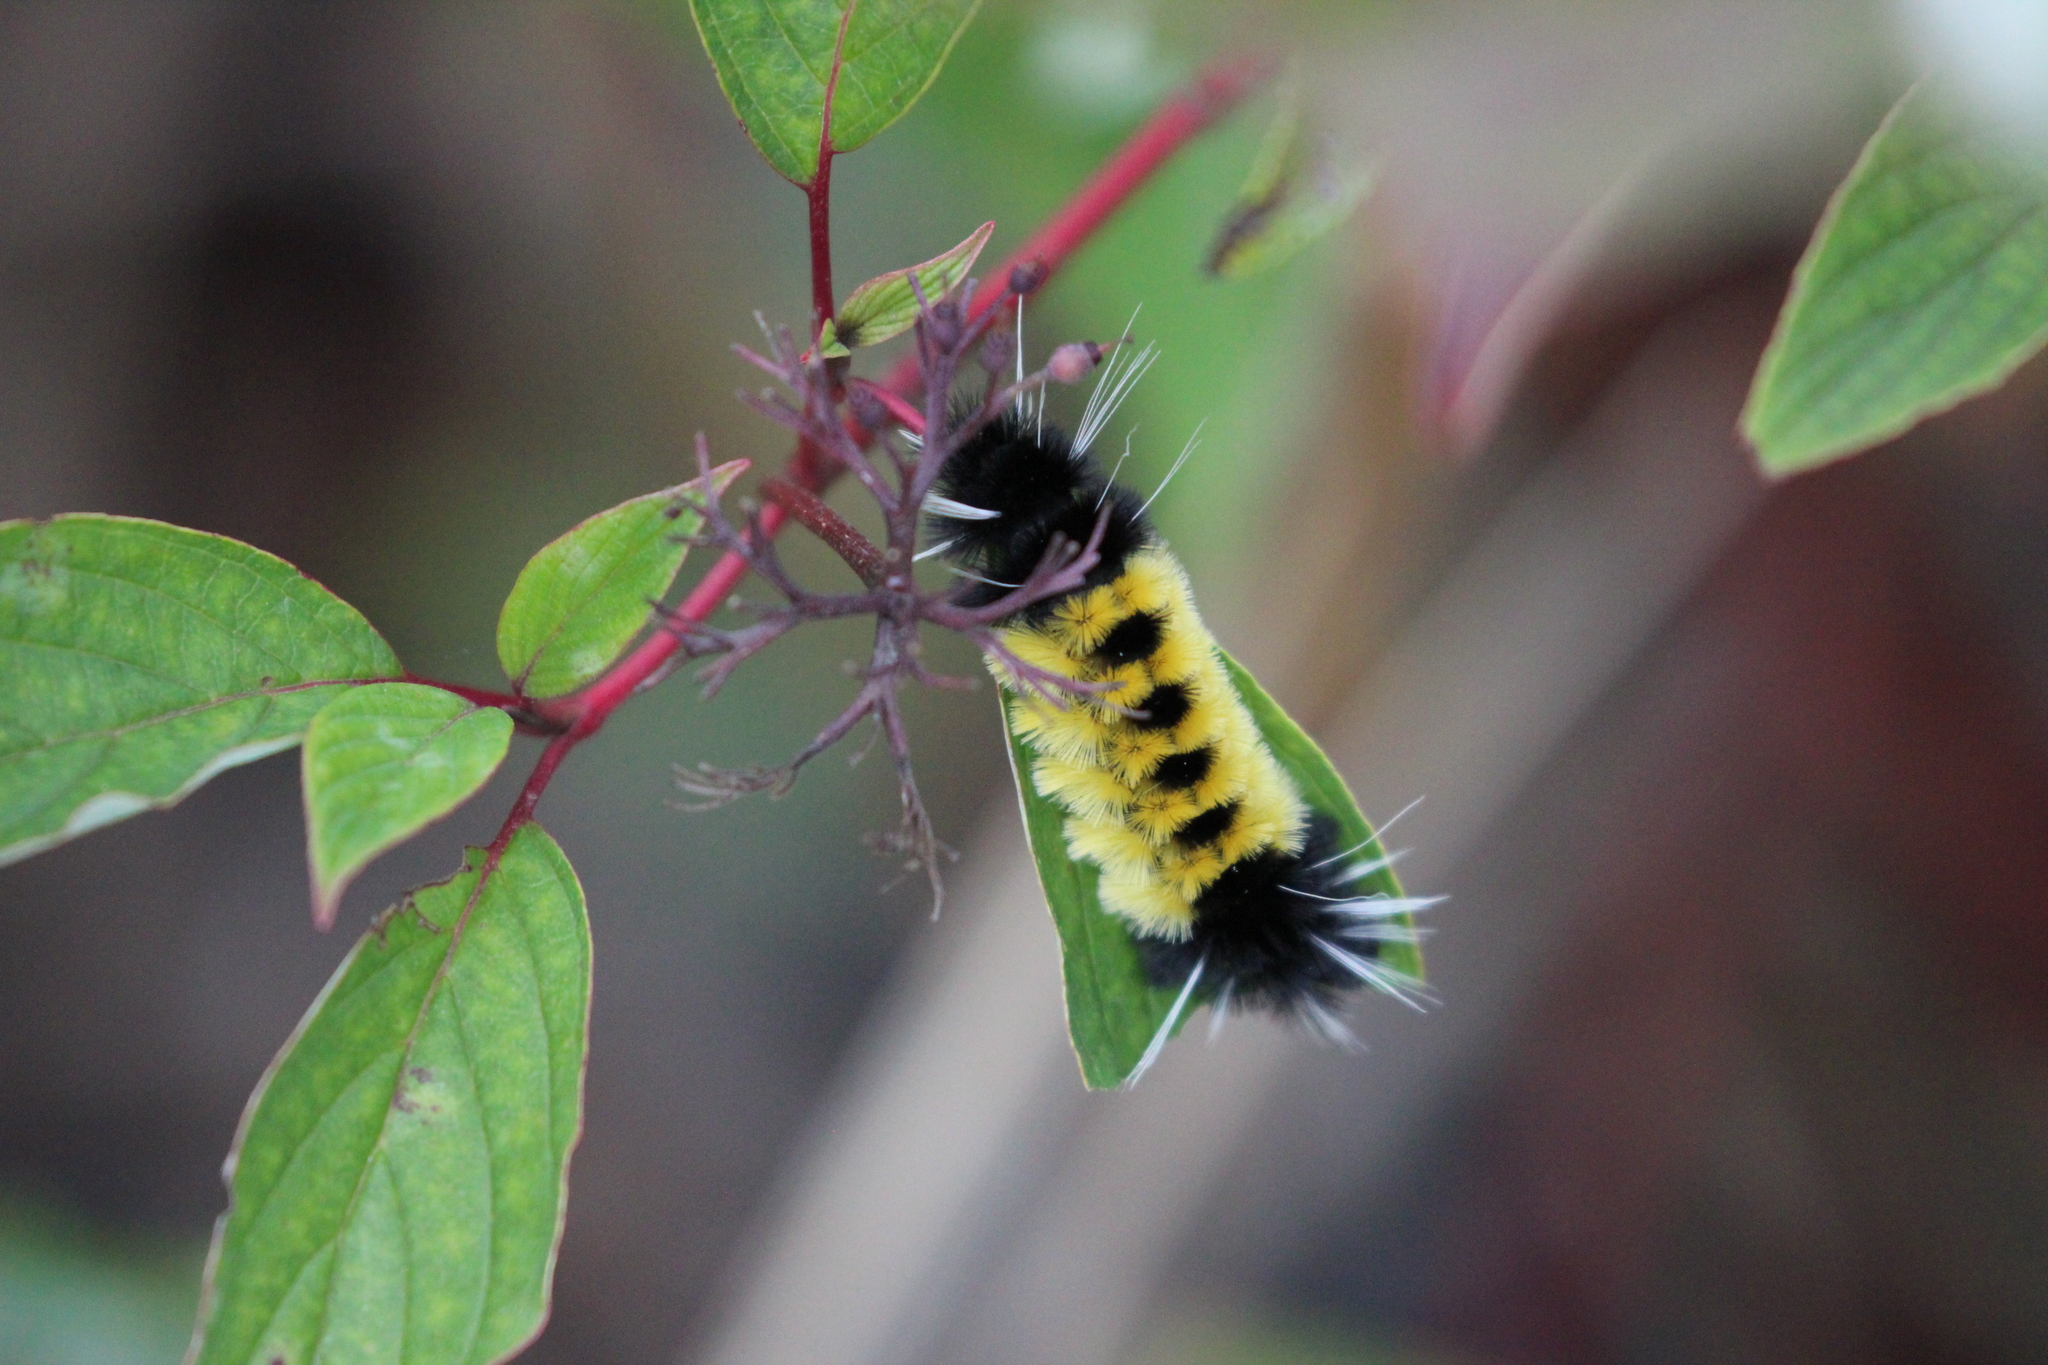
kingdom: Animalia
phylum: Arthropoda
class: Insecta
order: Lepidoptera
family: Erebidae
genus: Lophocampa
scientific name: Lophocampa maculata
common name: Spotted tussock moth
